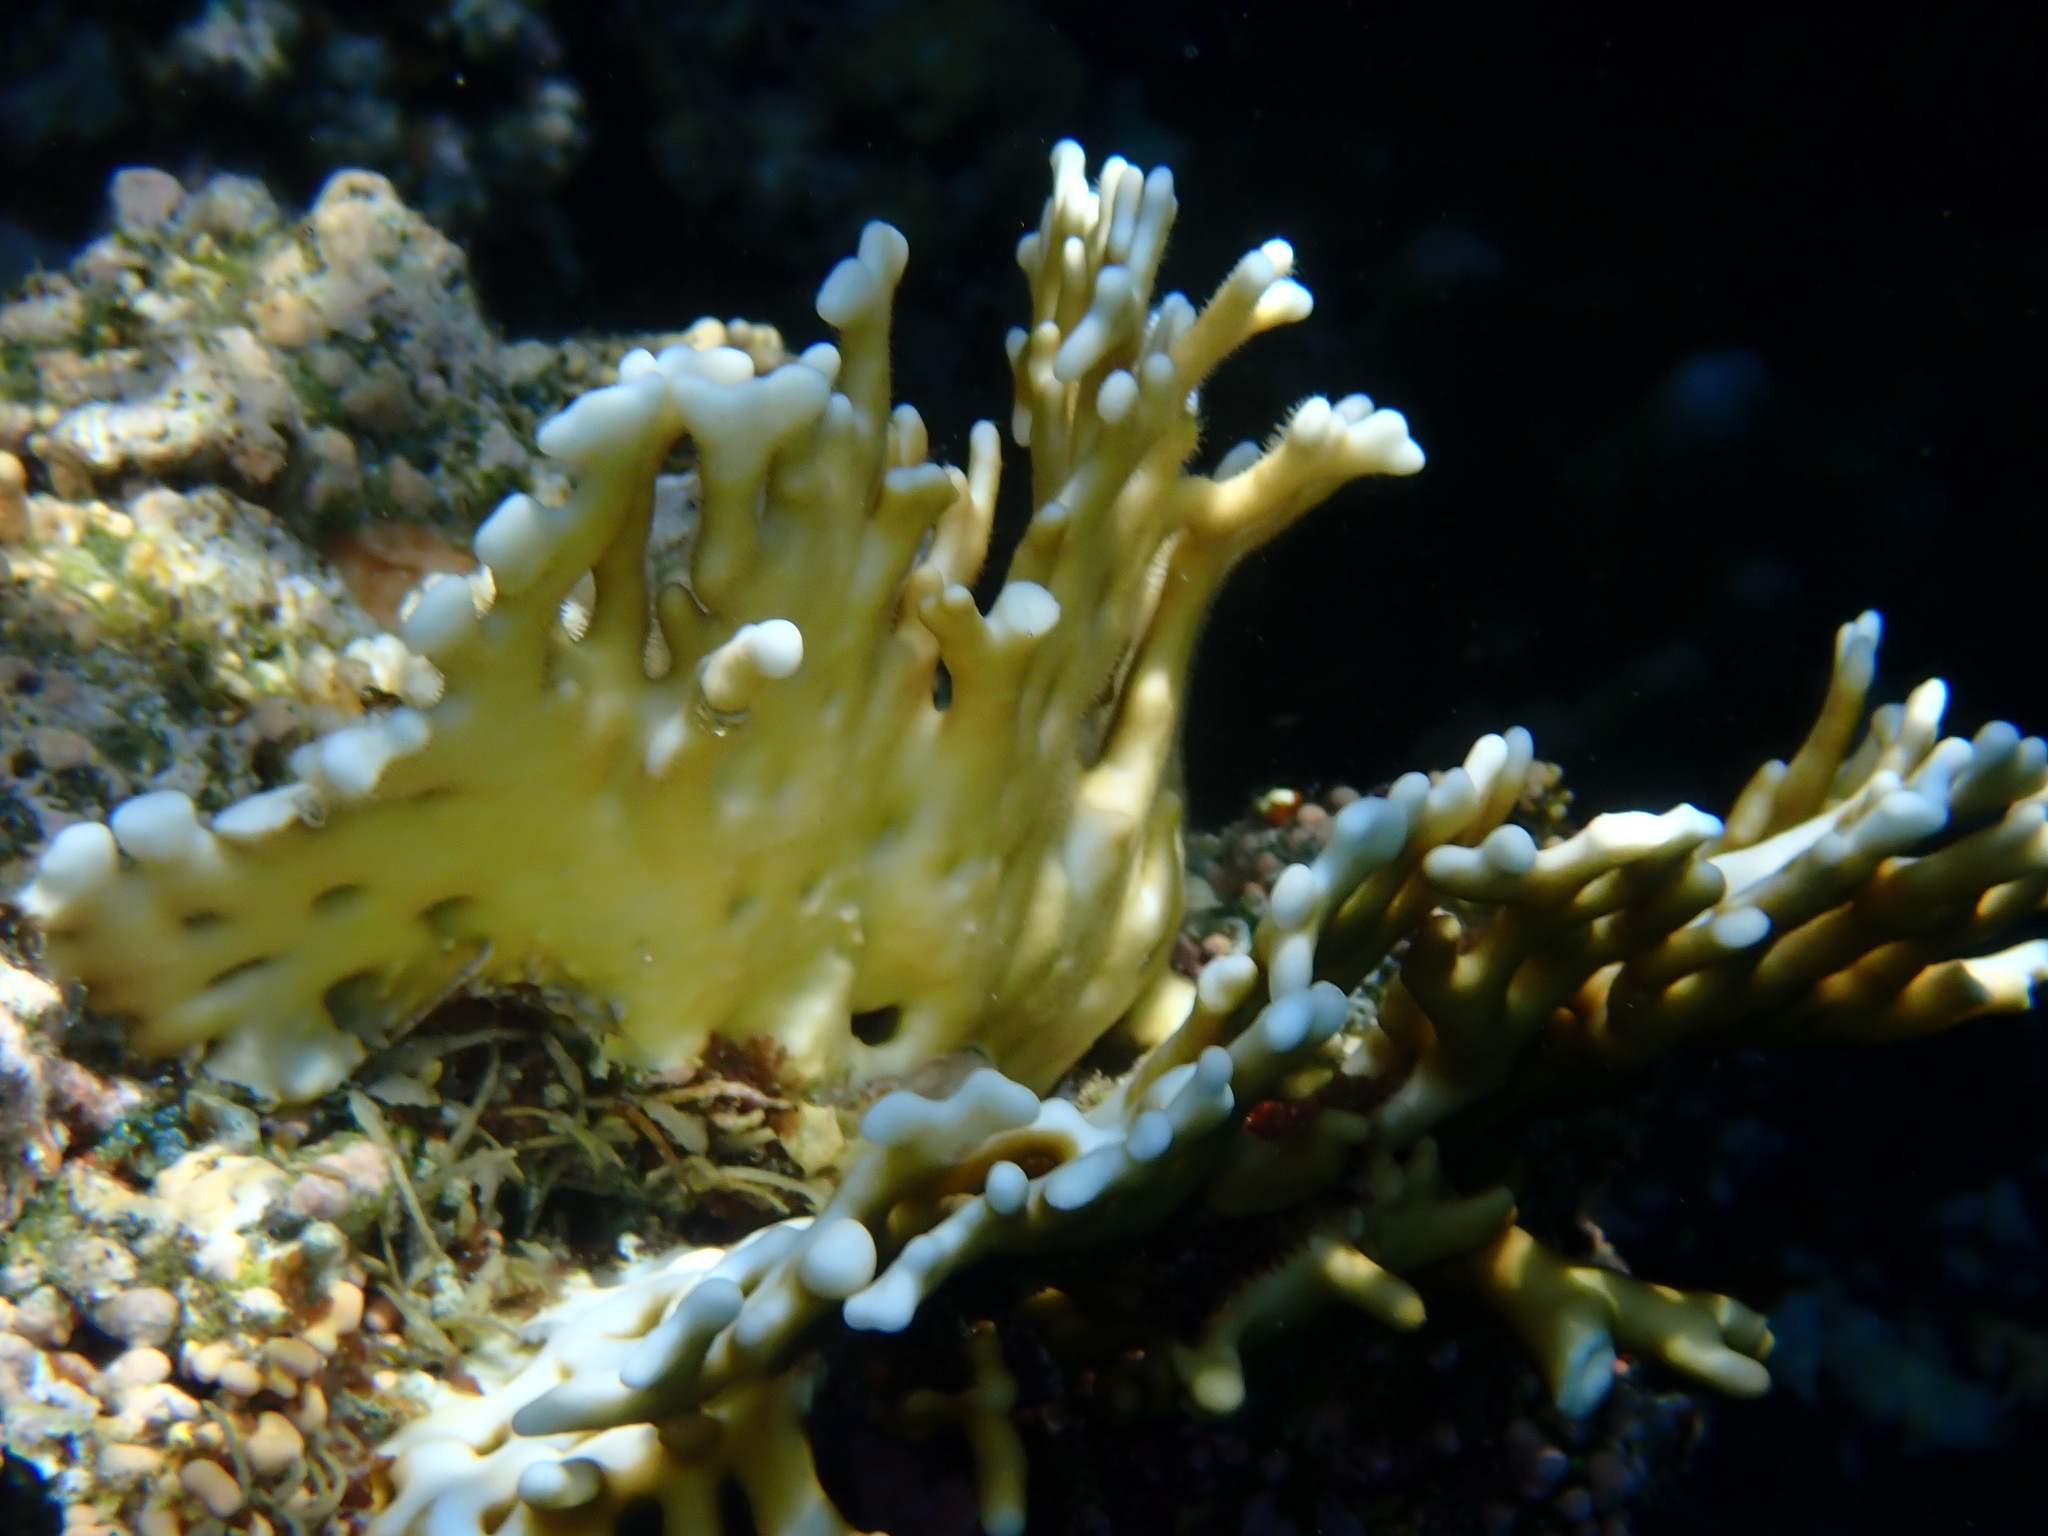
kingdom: Animalia
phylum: Cnidaria
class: Hydrozoa
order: Anthoathecata
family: Milleporidae
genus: Millepora
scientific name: Millepora dichotoma
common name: Ramified fire coral
